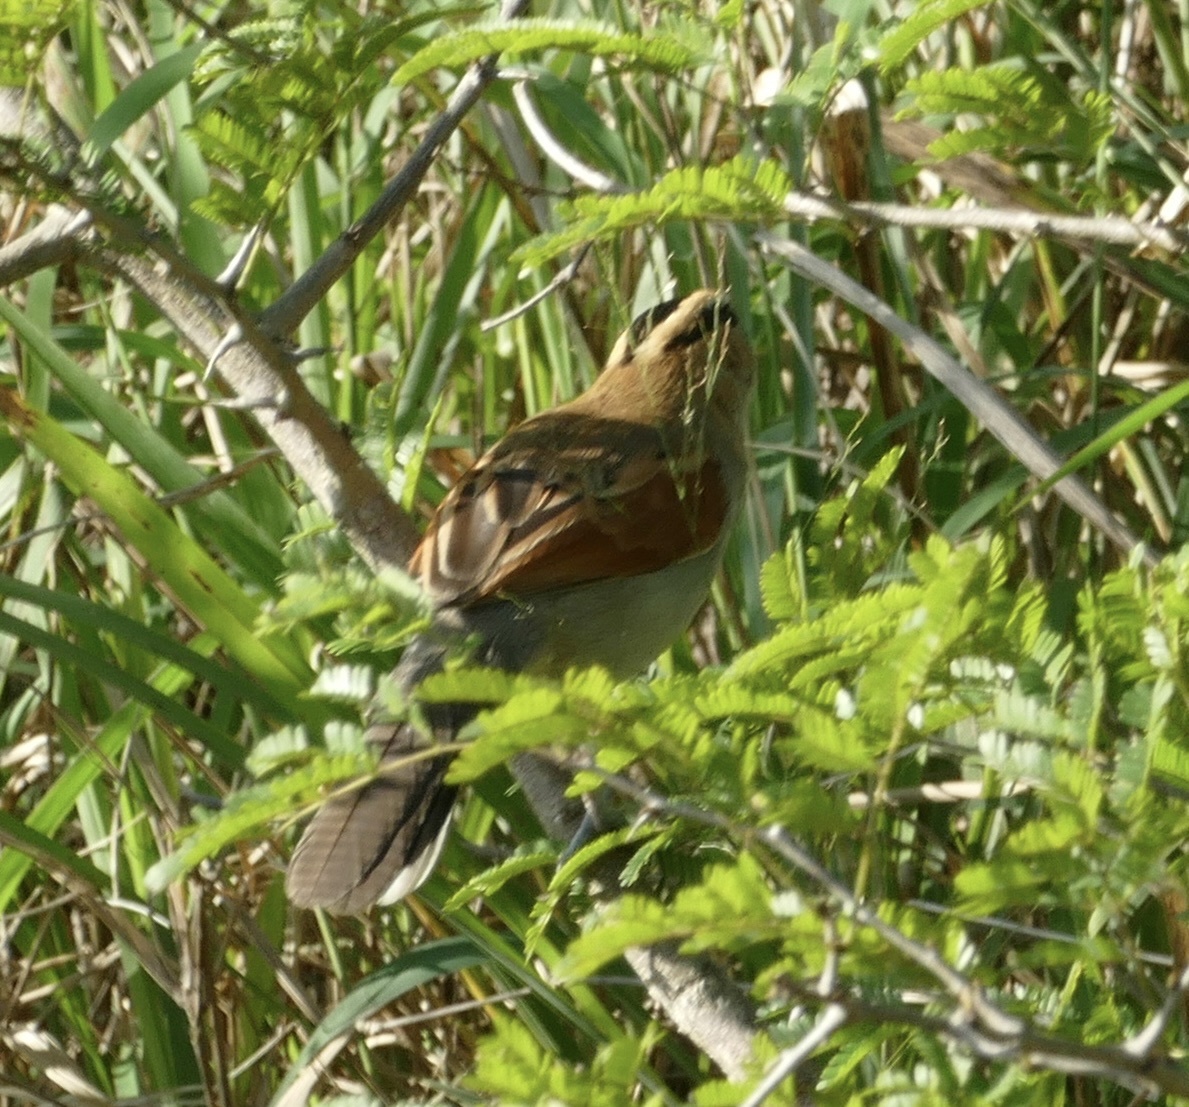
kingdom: Animalia
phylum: Chordata
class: Aves
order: Passeriformes
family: Malaconotidae
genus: Tchagra
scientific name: Tchagra senegalus
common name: Black-crowned tchagra
